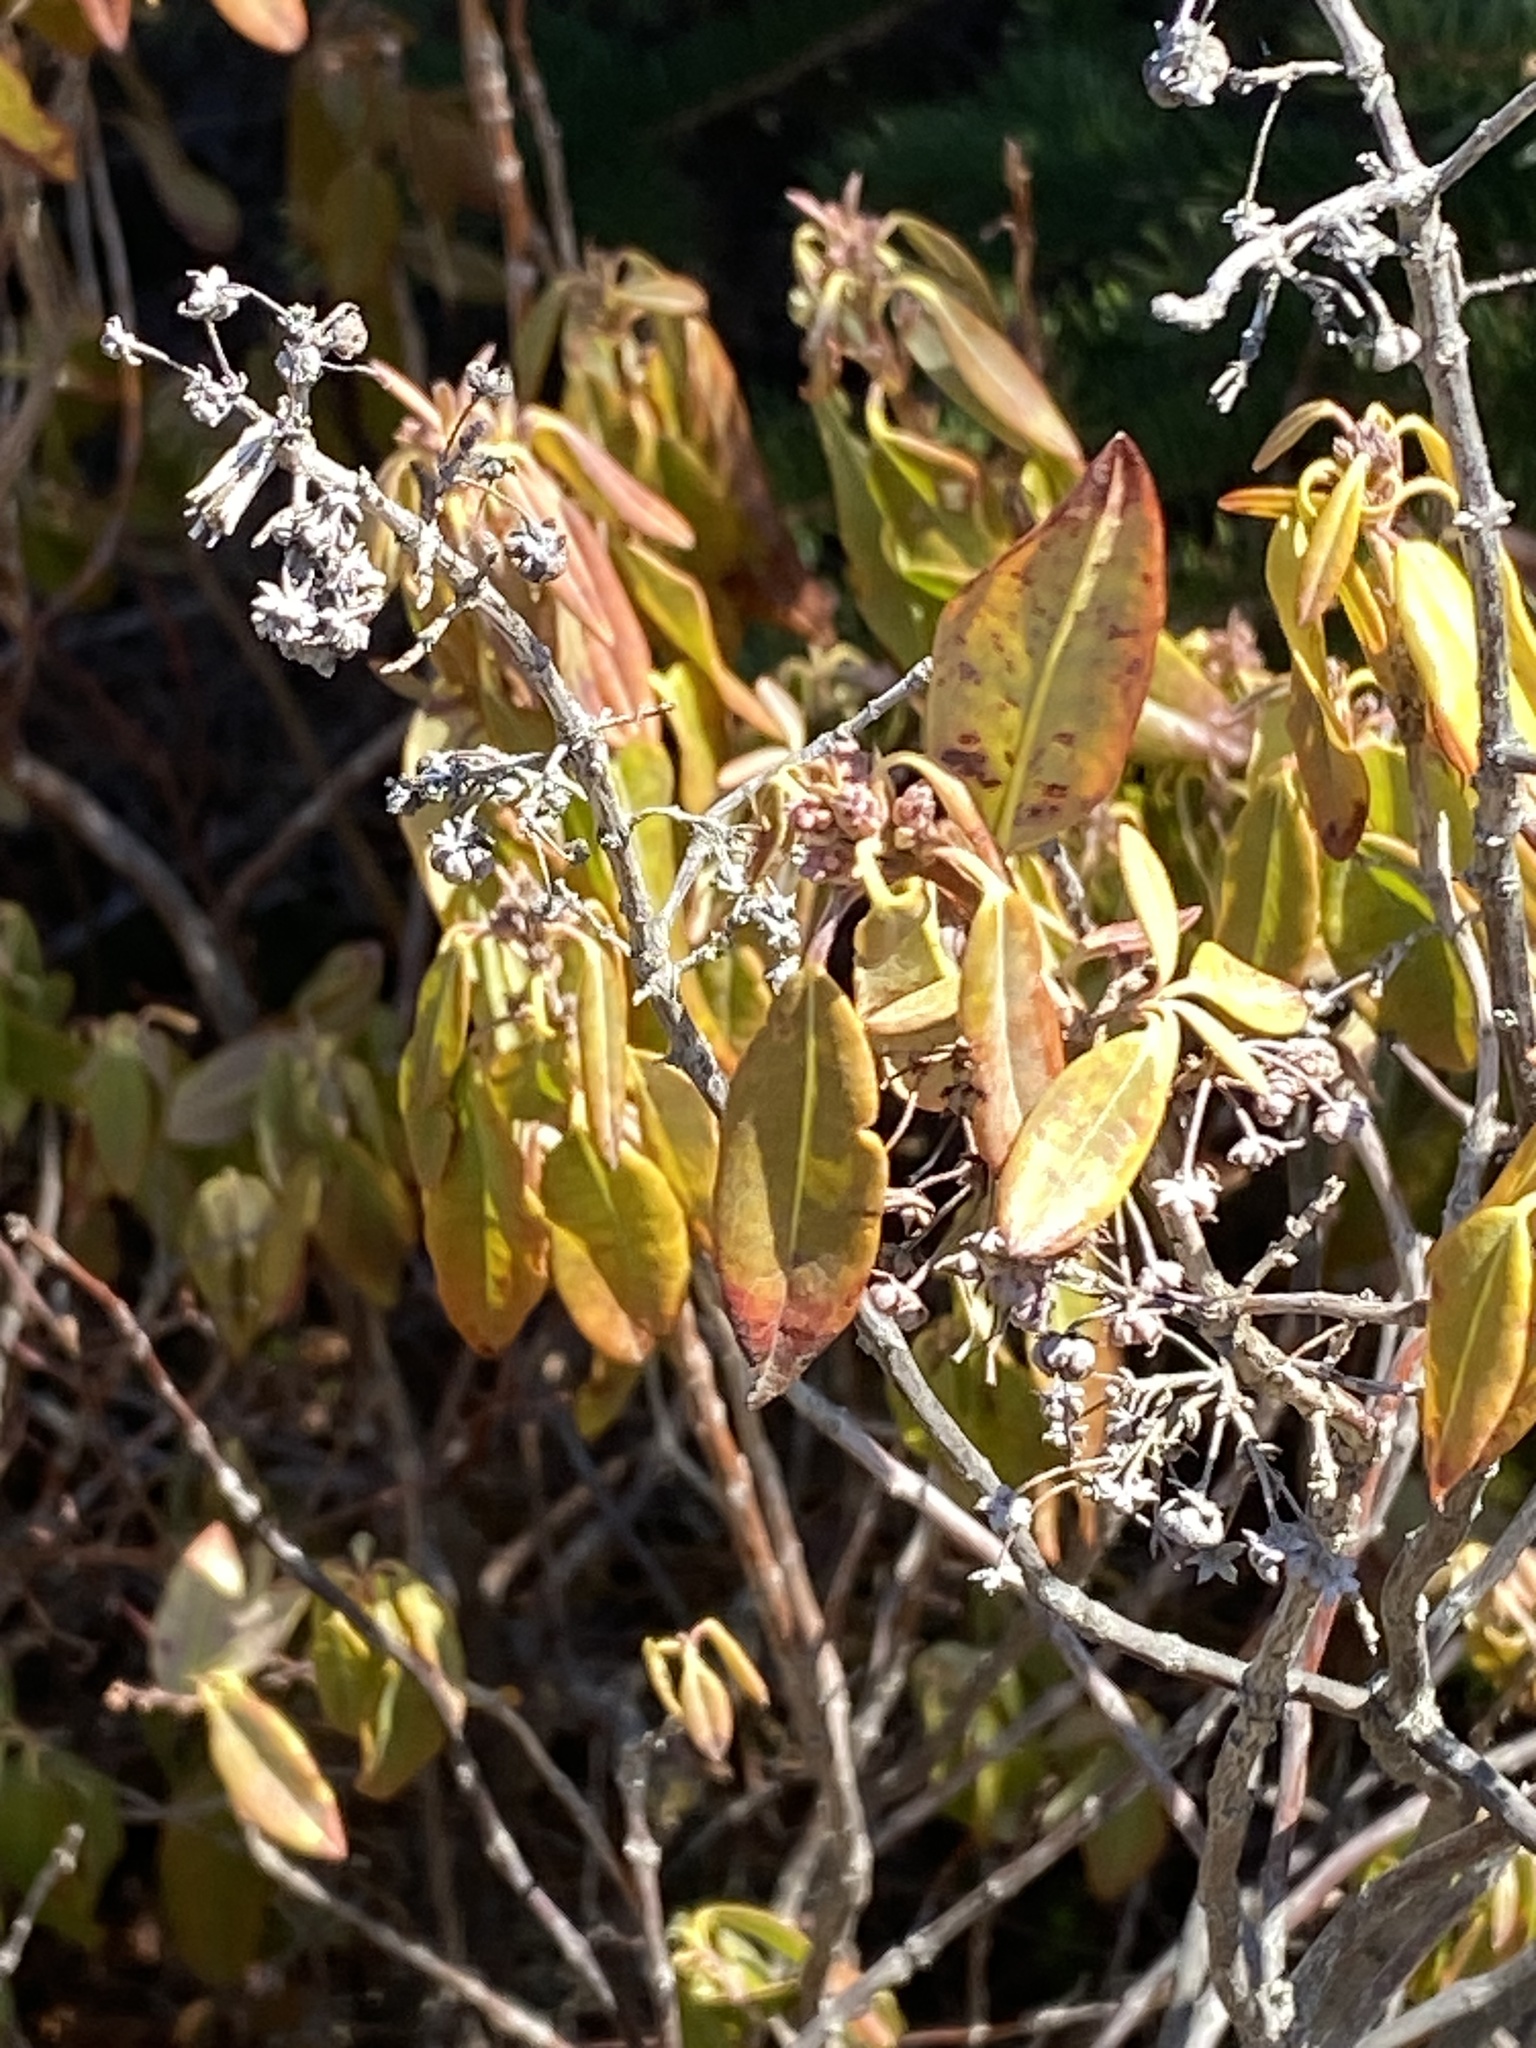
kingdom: Plantae
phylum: Tracheophyta
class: Magnoliopsida
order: Ericales
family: Ericaceae
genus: Kalmia
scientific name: Kalmia angustifolia
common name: Sheep-laurel
